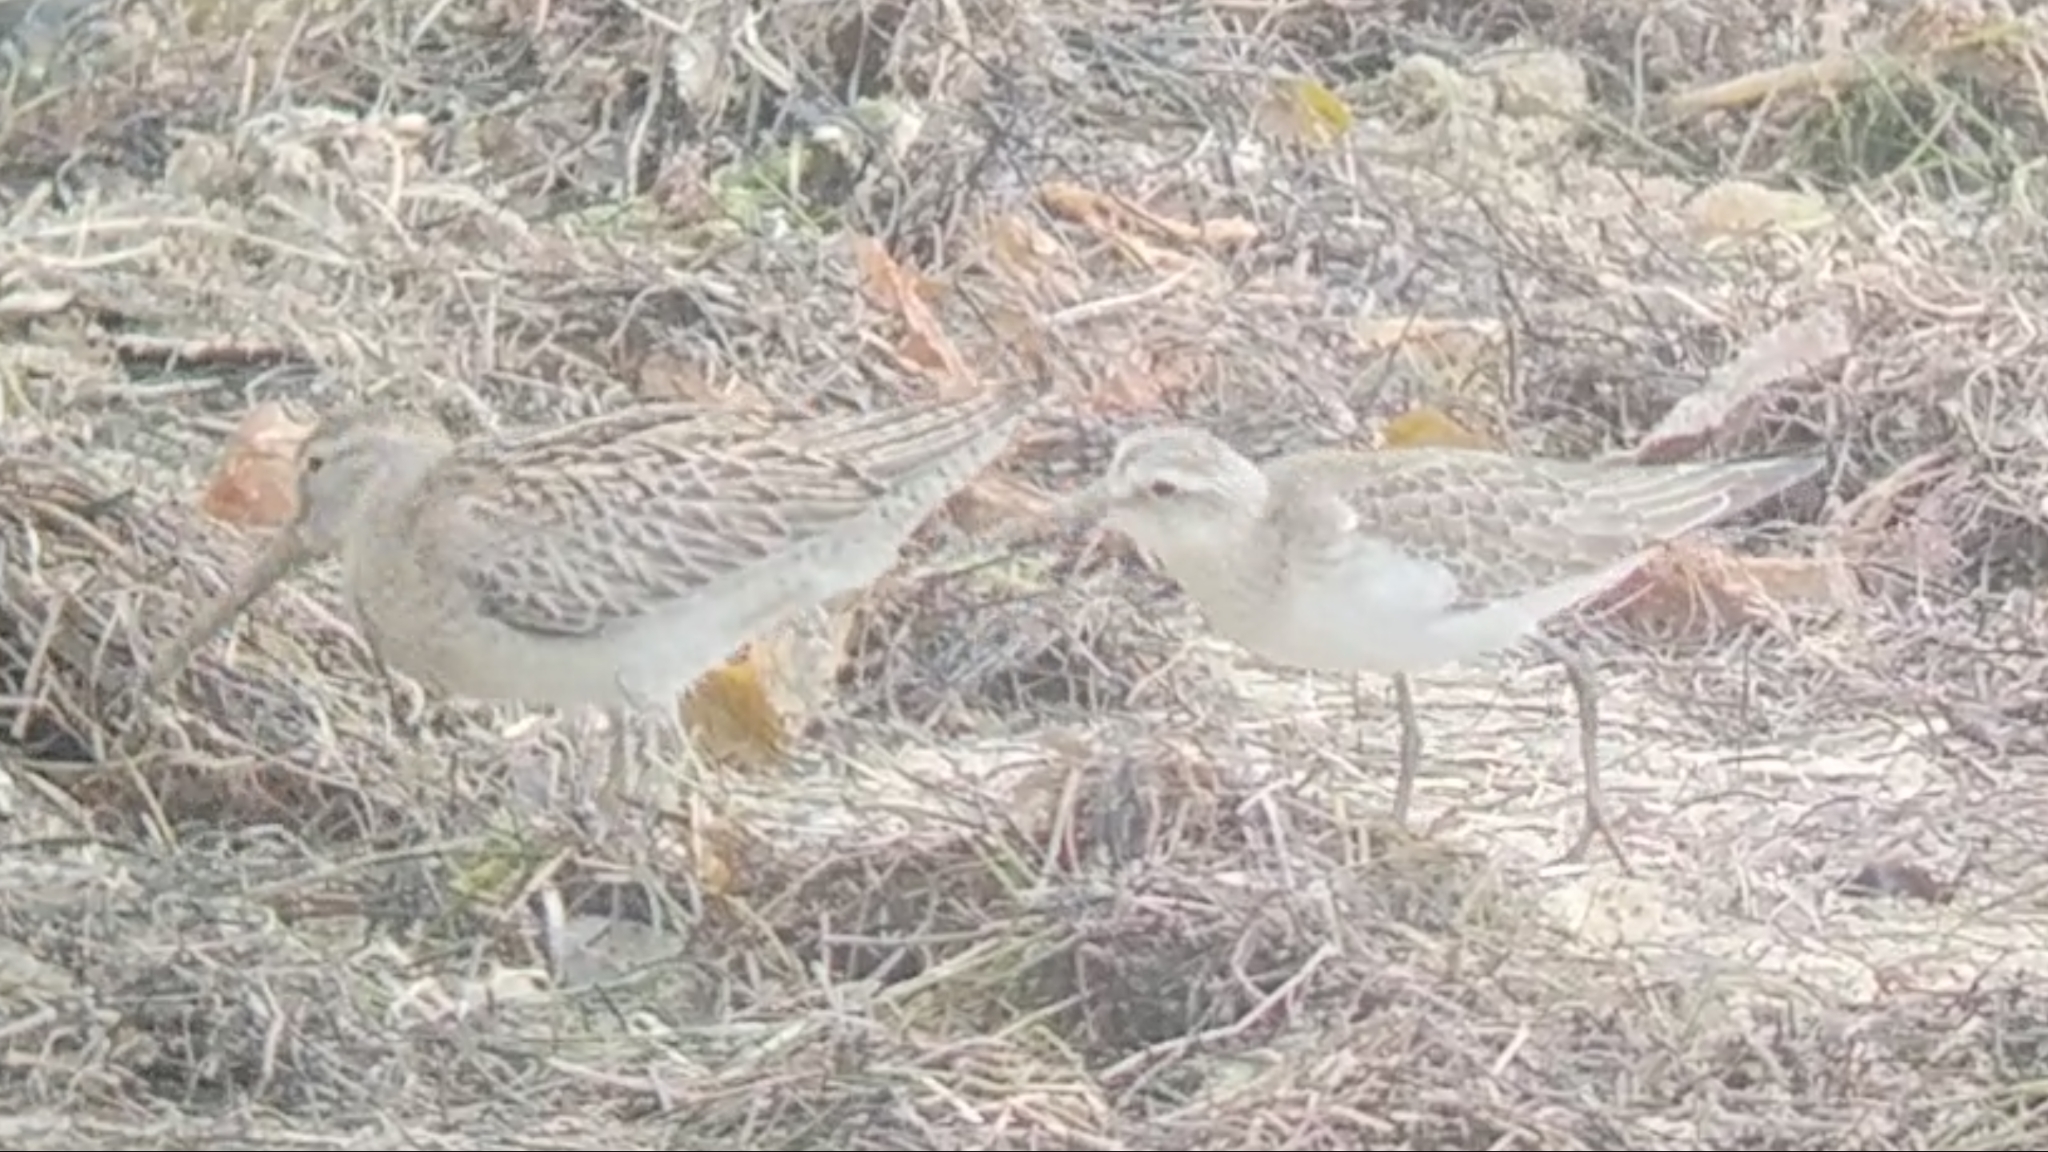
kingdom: Animalia
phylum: Chordata
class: Aves
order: Charadriiformes
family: Scolopacidae
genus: Calidris
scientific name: Calidris ferruginea
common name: Curlew sandpiper
